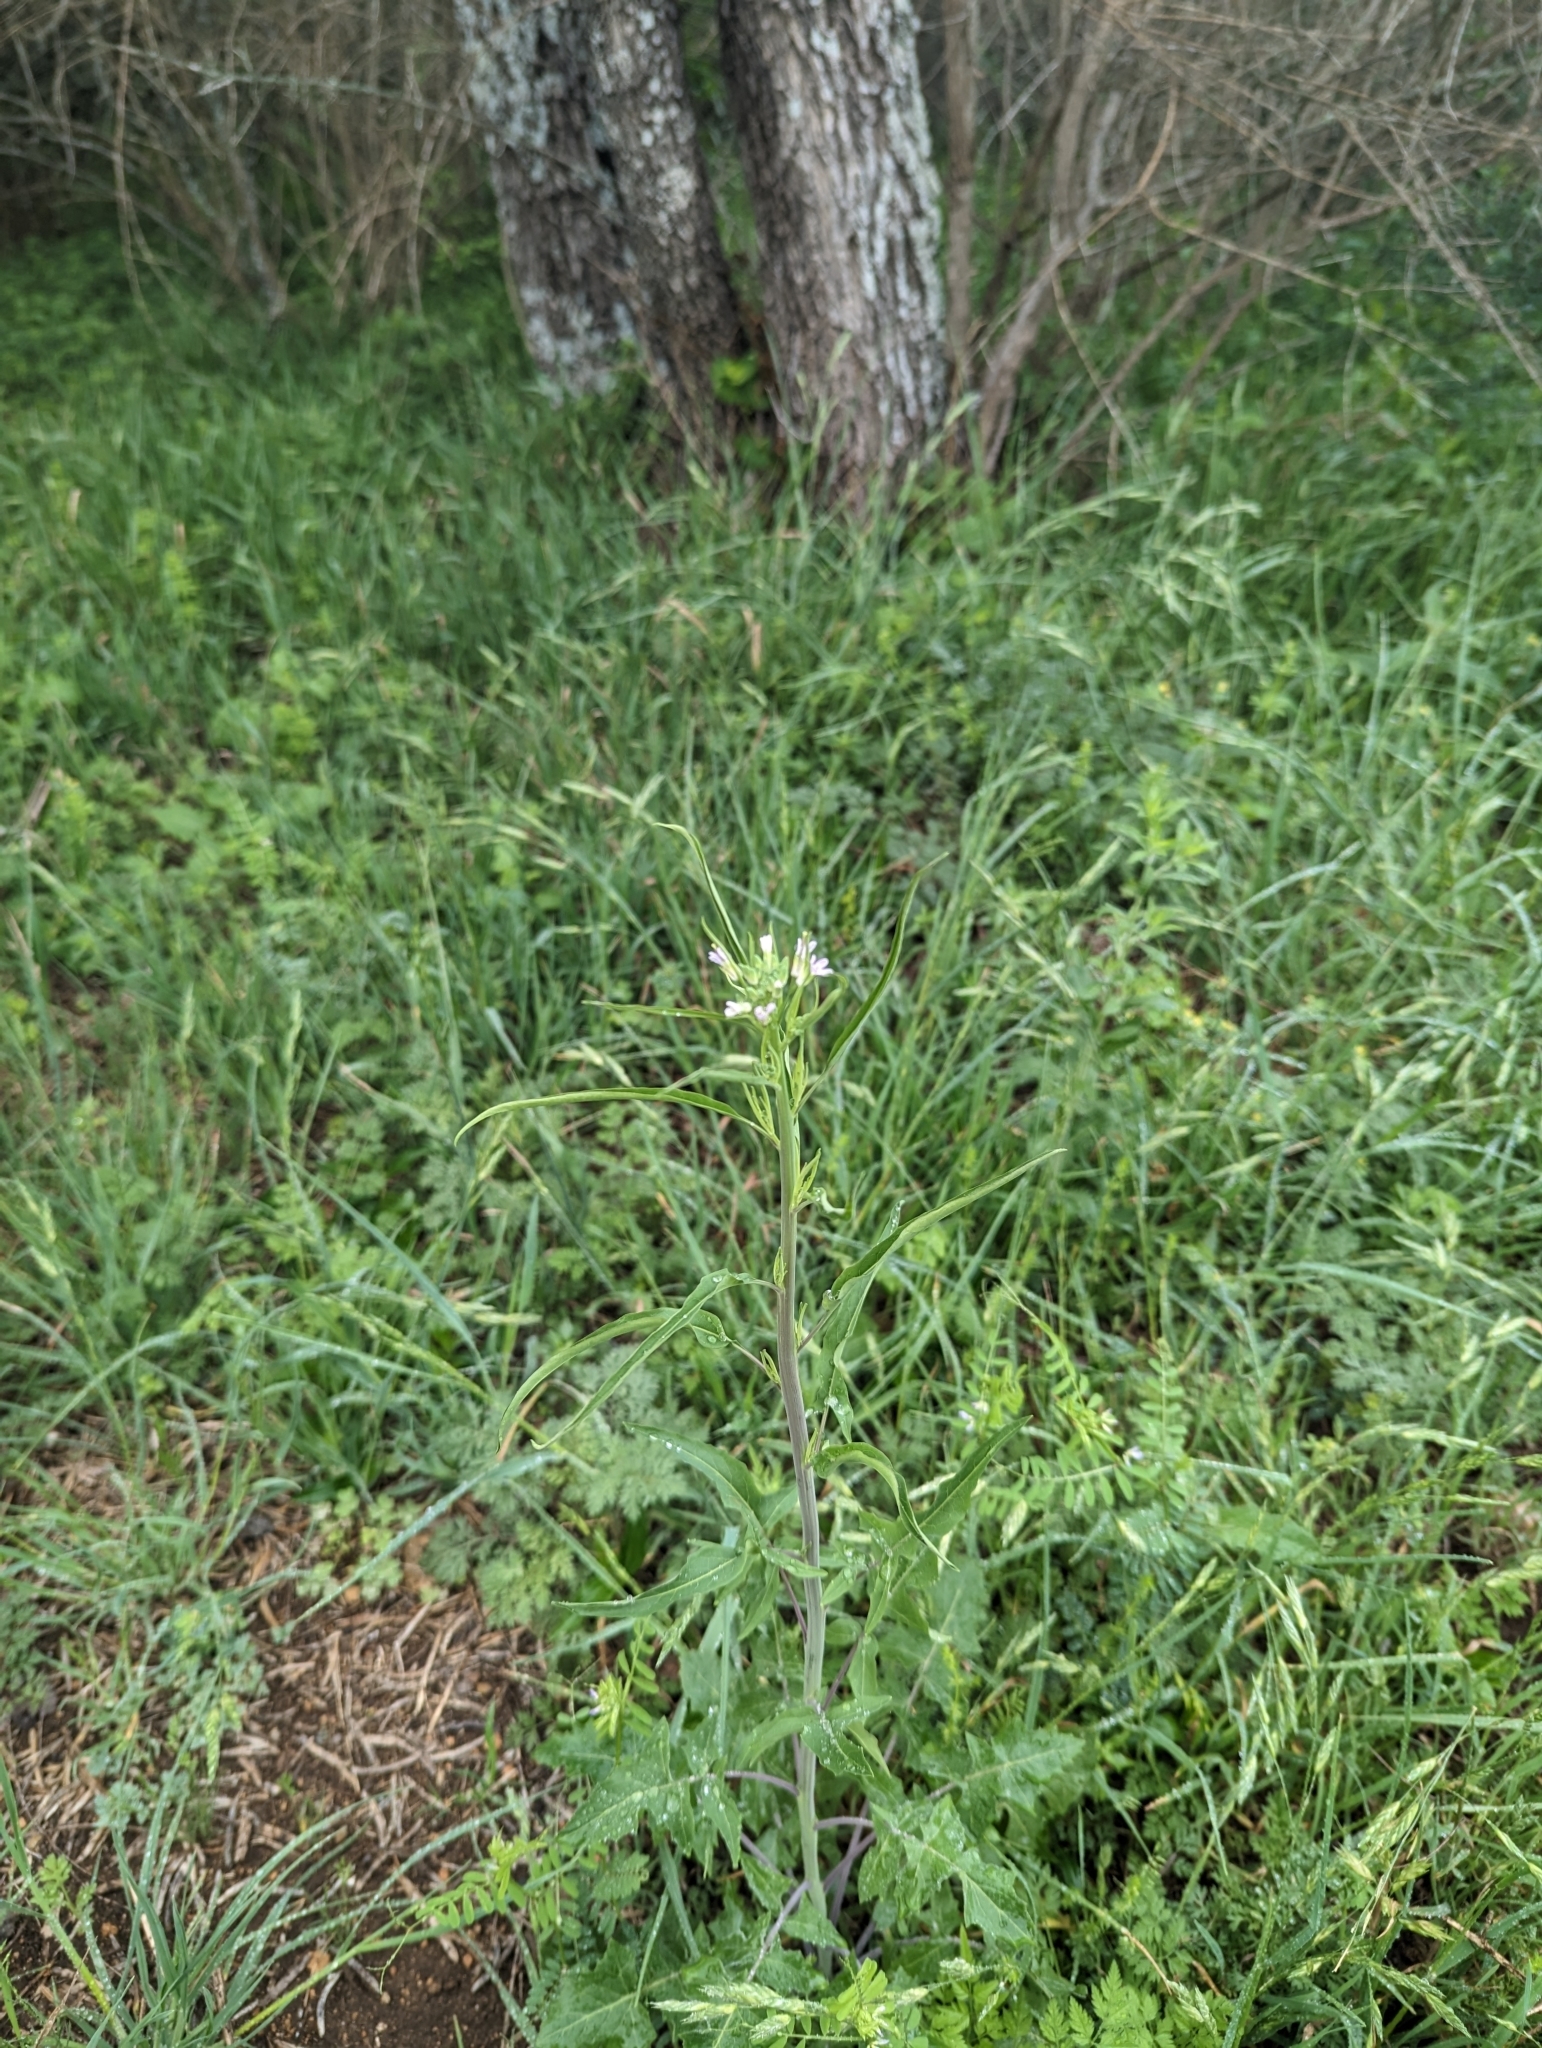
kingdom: Plantae
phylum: Tracheophyta
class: Magnoliopsida
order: Brassicales
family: Brassicaceae
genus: Streptanthus
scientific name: Streptanthus petiolaris
